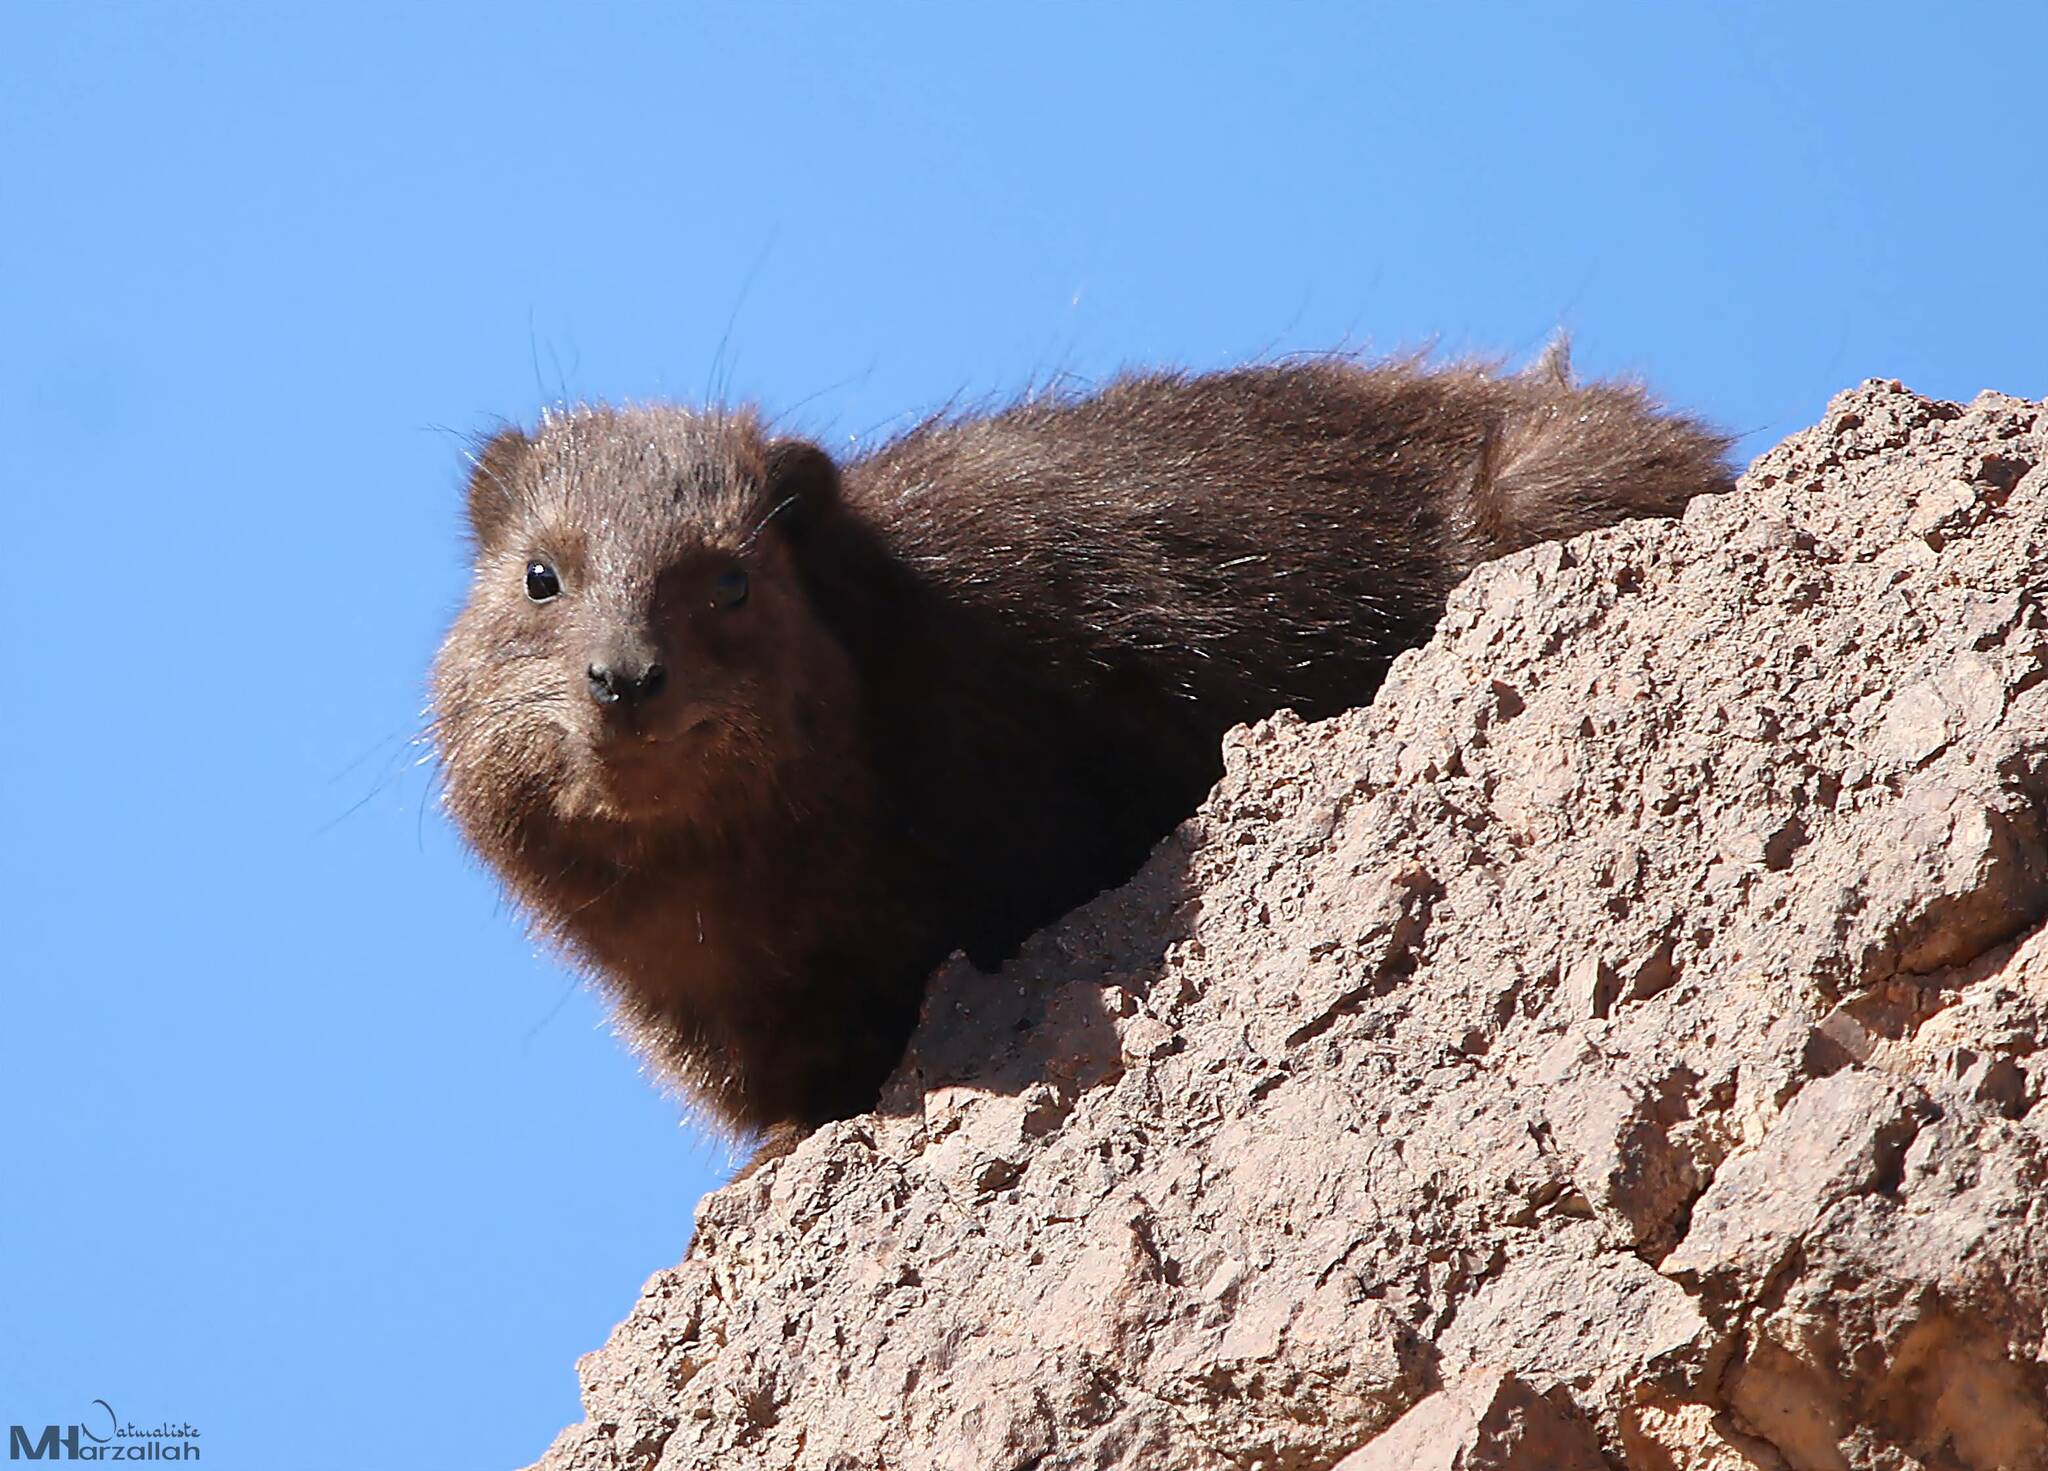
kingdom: Animalia
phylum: Chordata
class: Mammalia
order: Hyracoidea
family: Procaviidae
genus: Procavia
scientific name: Procavia capensis
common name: Rock hyrax
